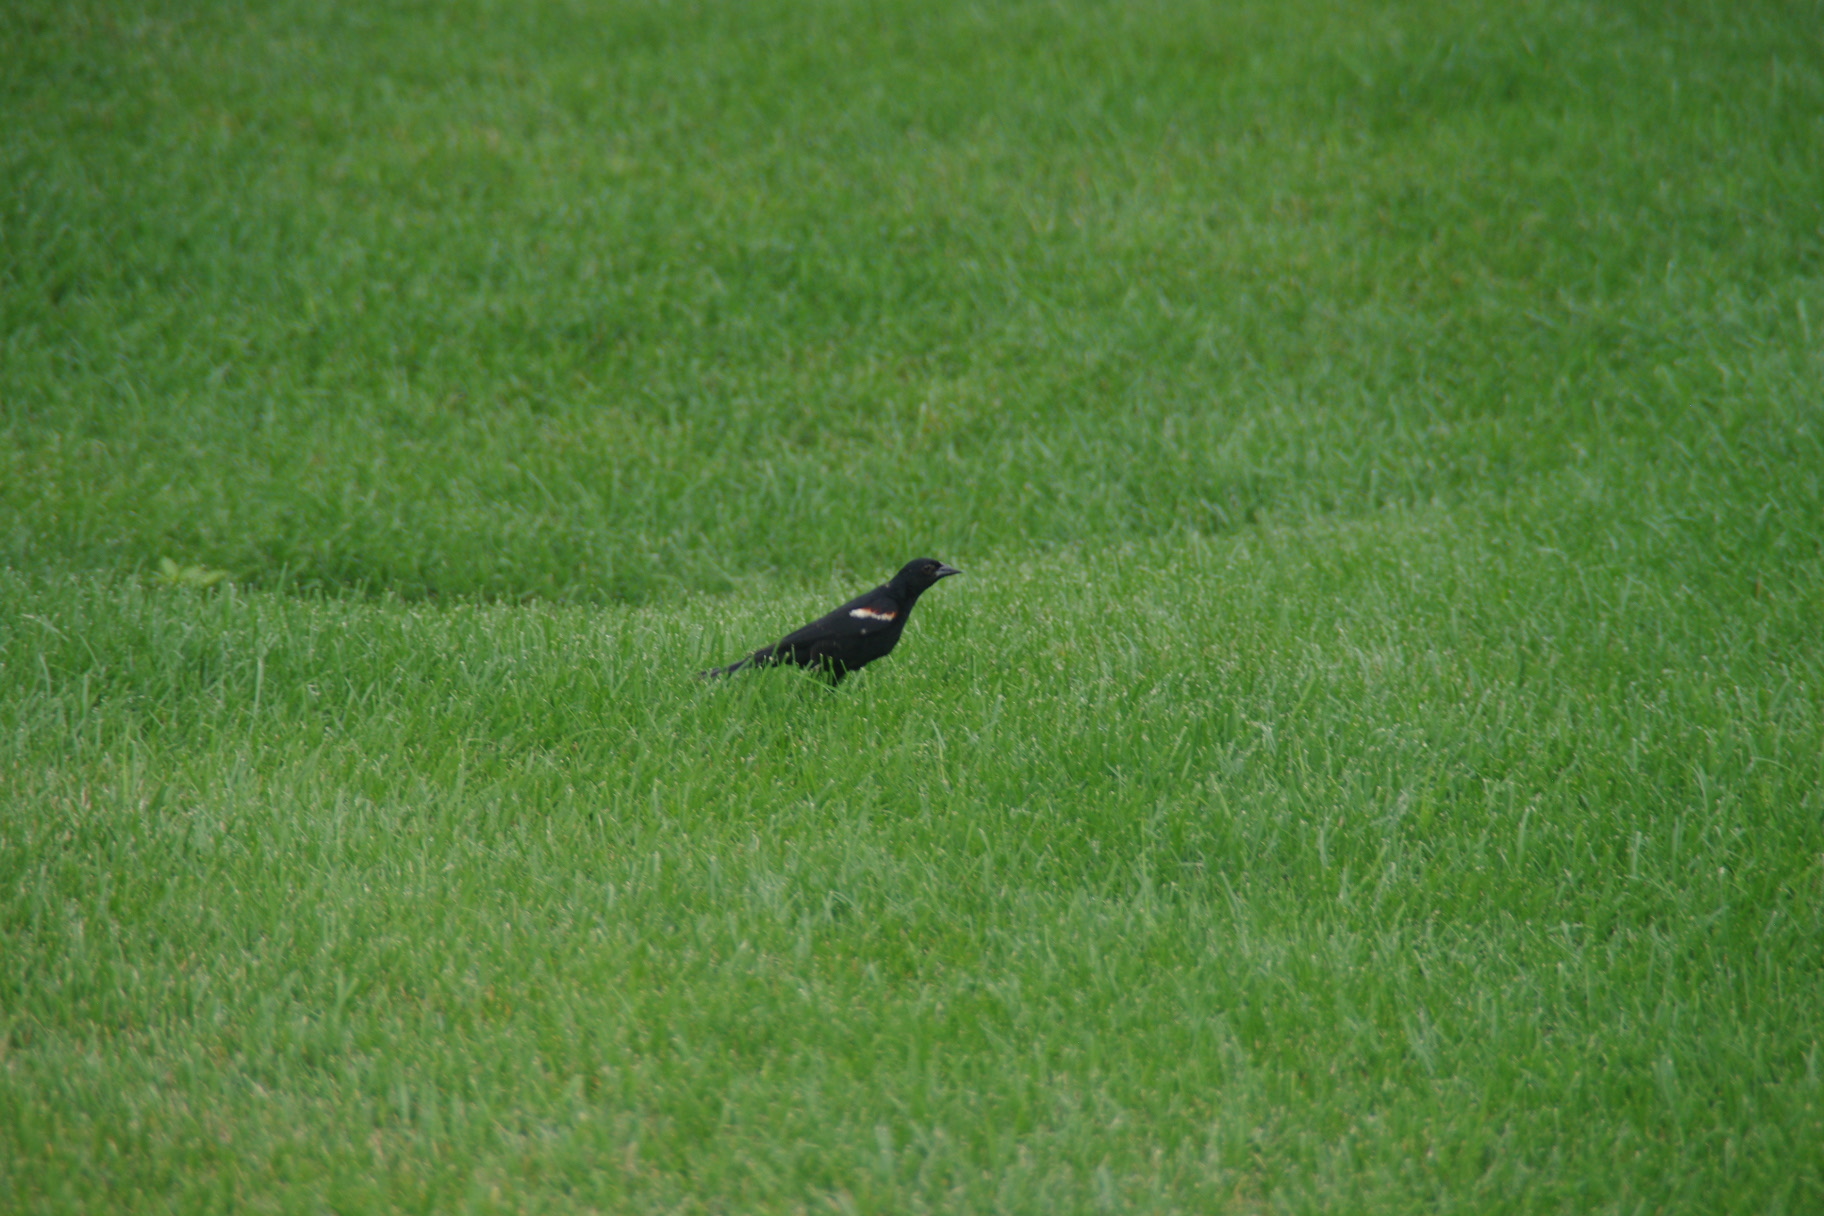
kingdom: Animalia
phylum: Chordata
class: Aves
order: Passeriformes
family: Icteridae
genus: Agelaius
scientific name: Agelaius phoeniceus
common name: Red-winged blackbird
